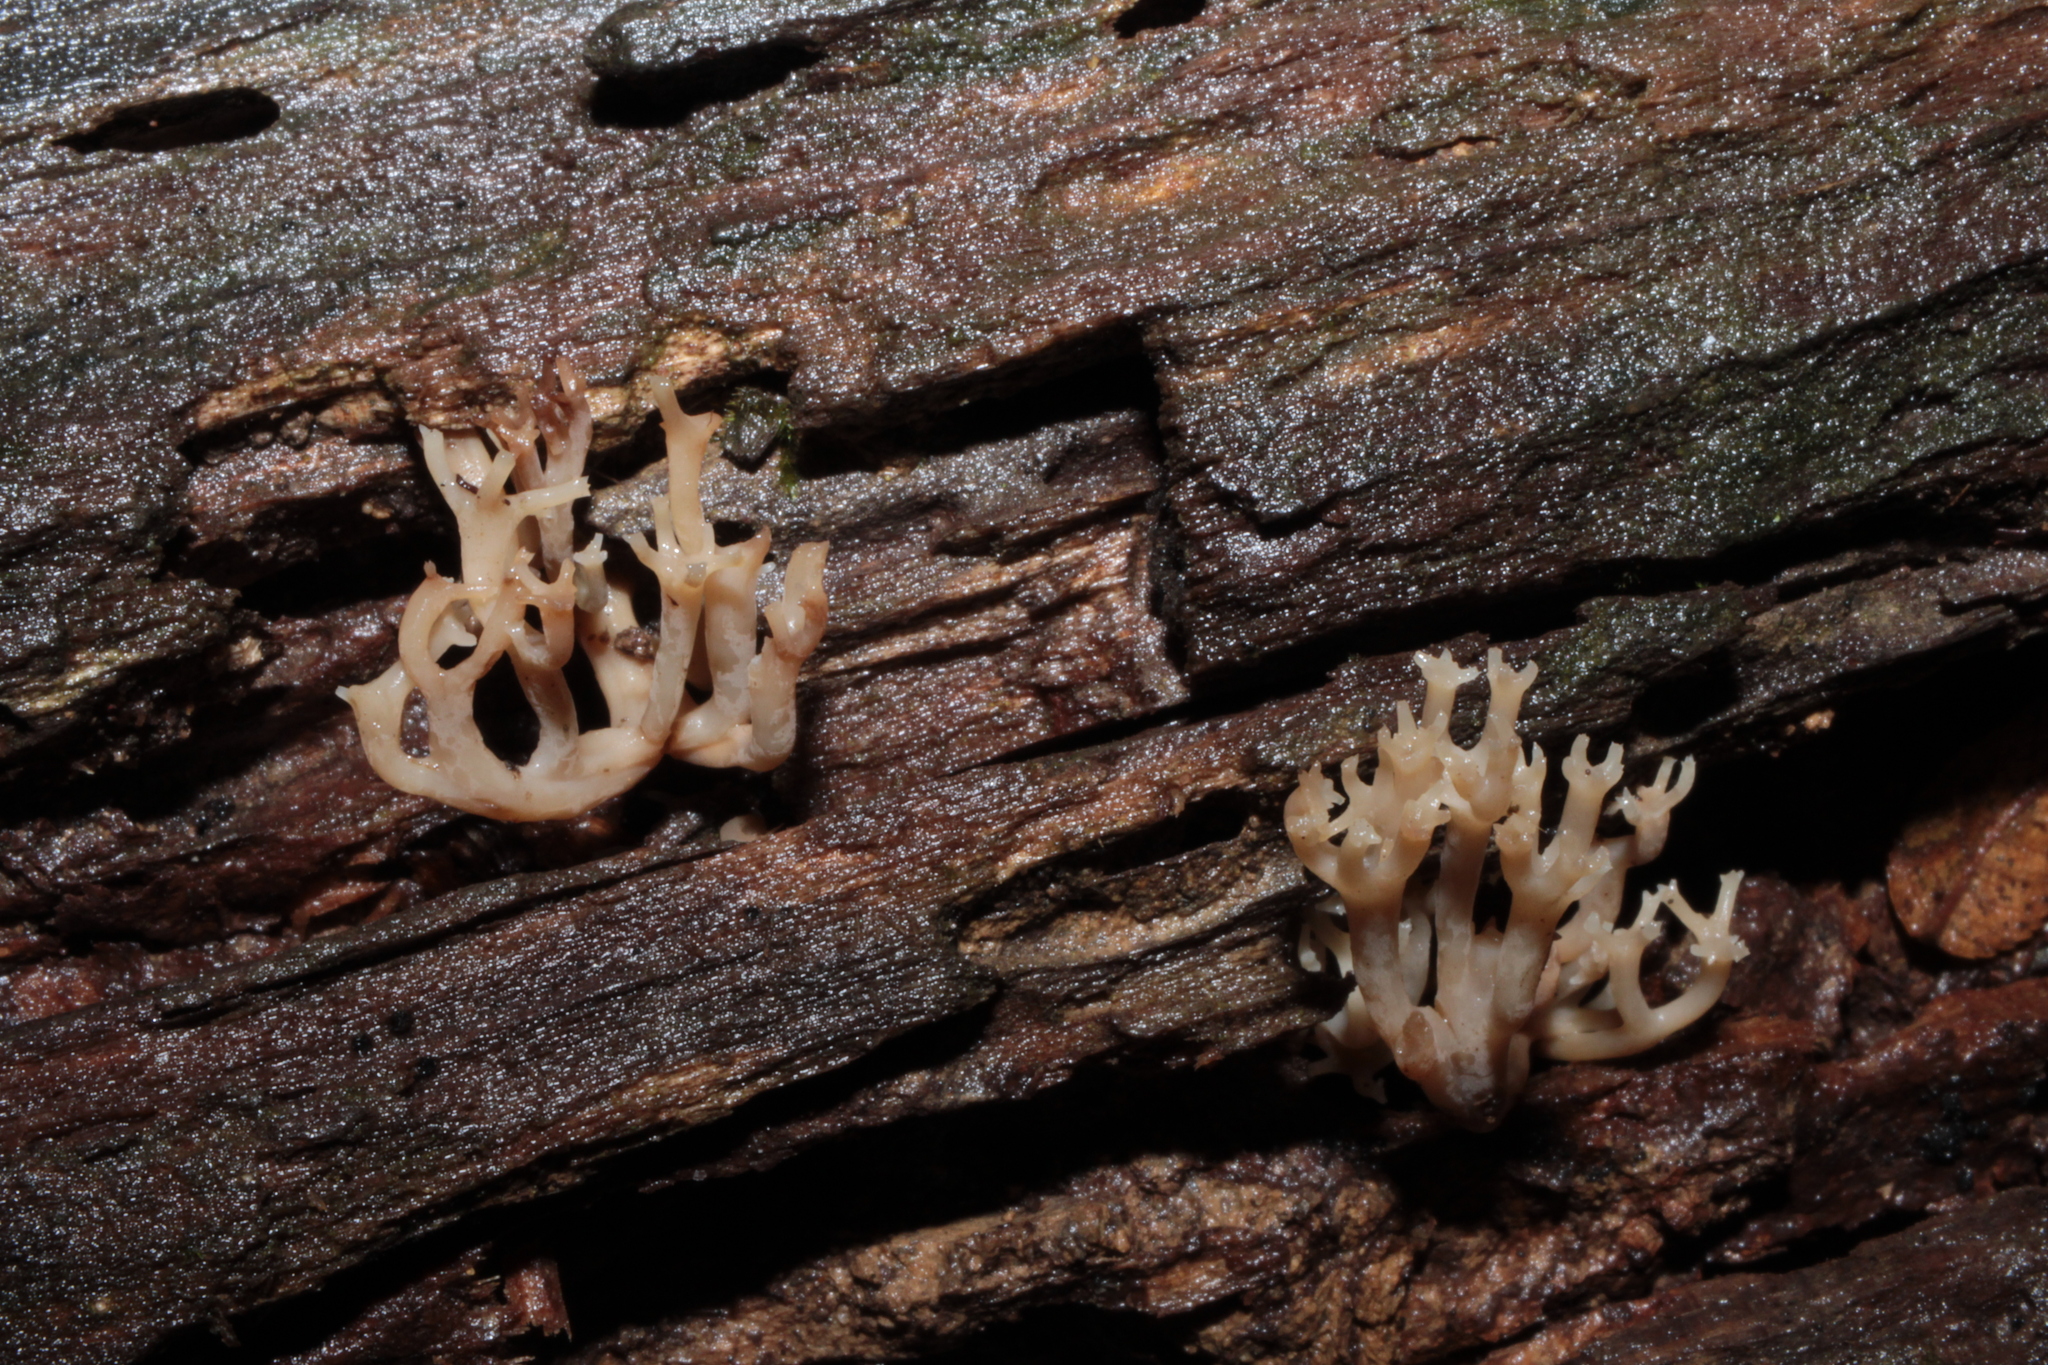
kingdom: Fungi
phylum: Basidiomycota
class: Agaricomycetes
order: Russulales
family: Auriscalpiaceae
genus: Artomyces
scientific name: Artomyces pyxidatus
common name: Crown-tipped coral fungus
